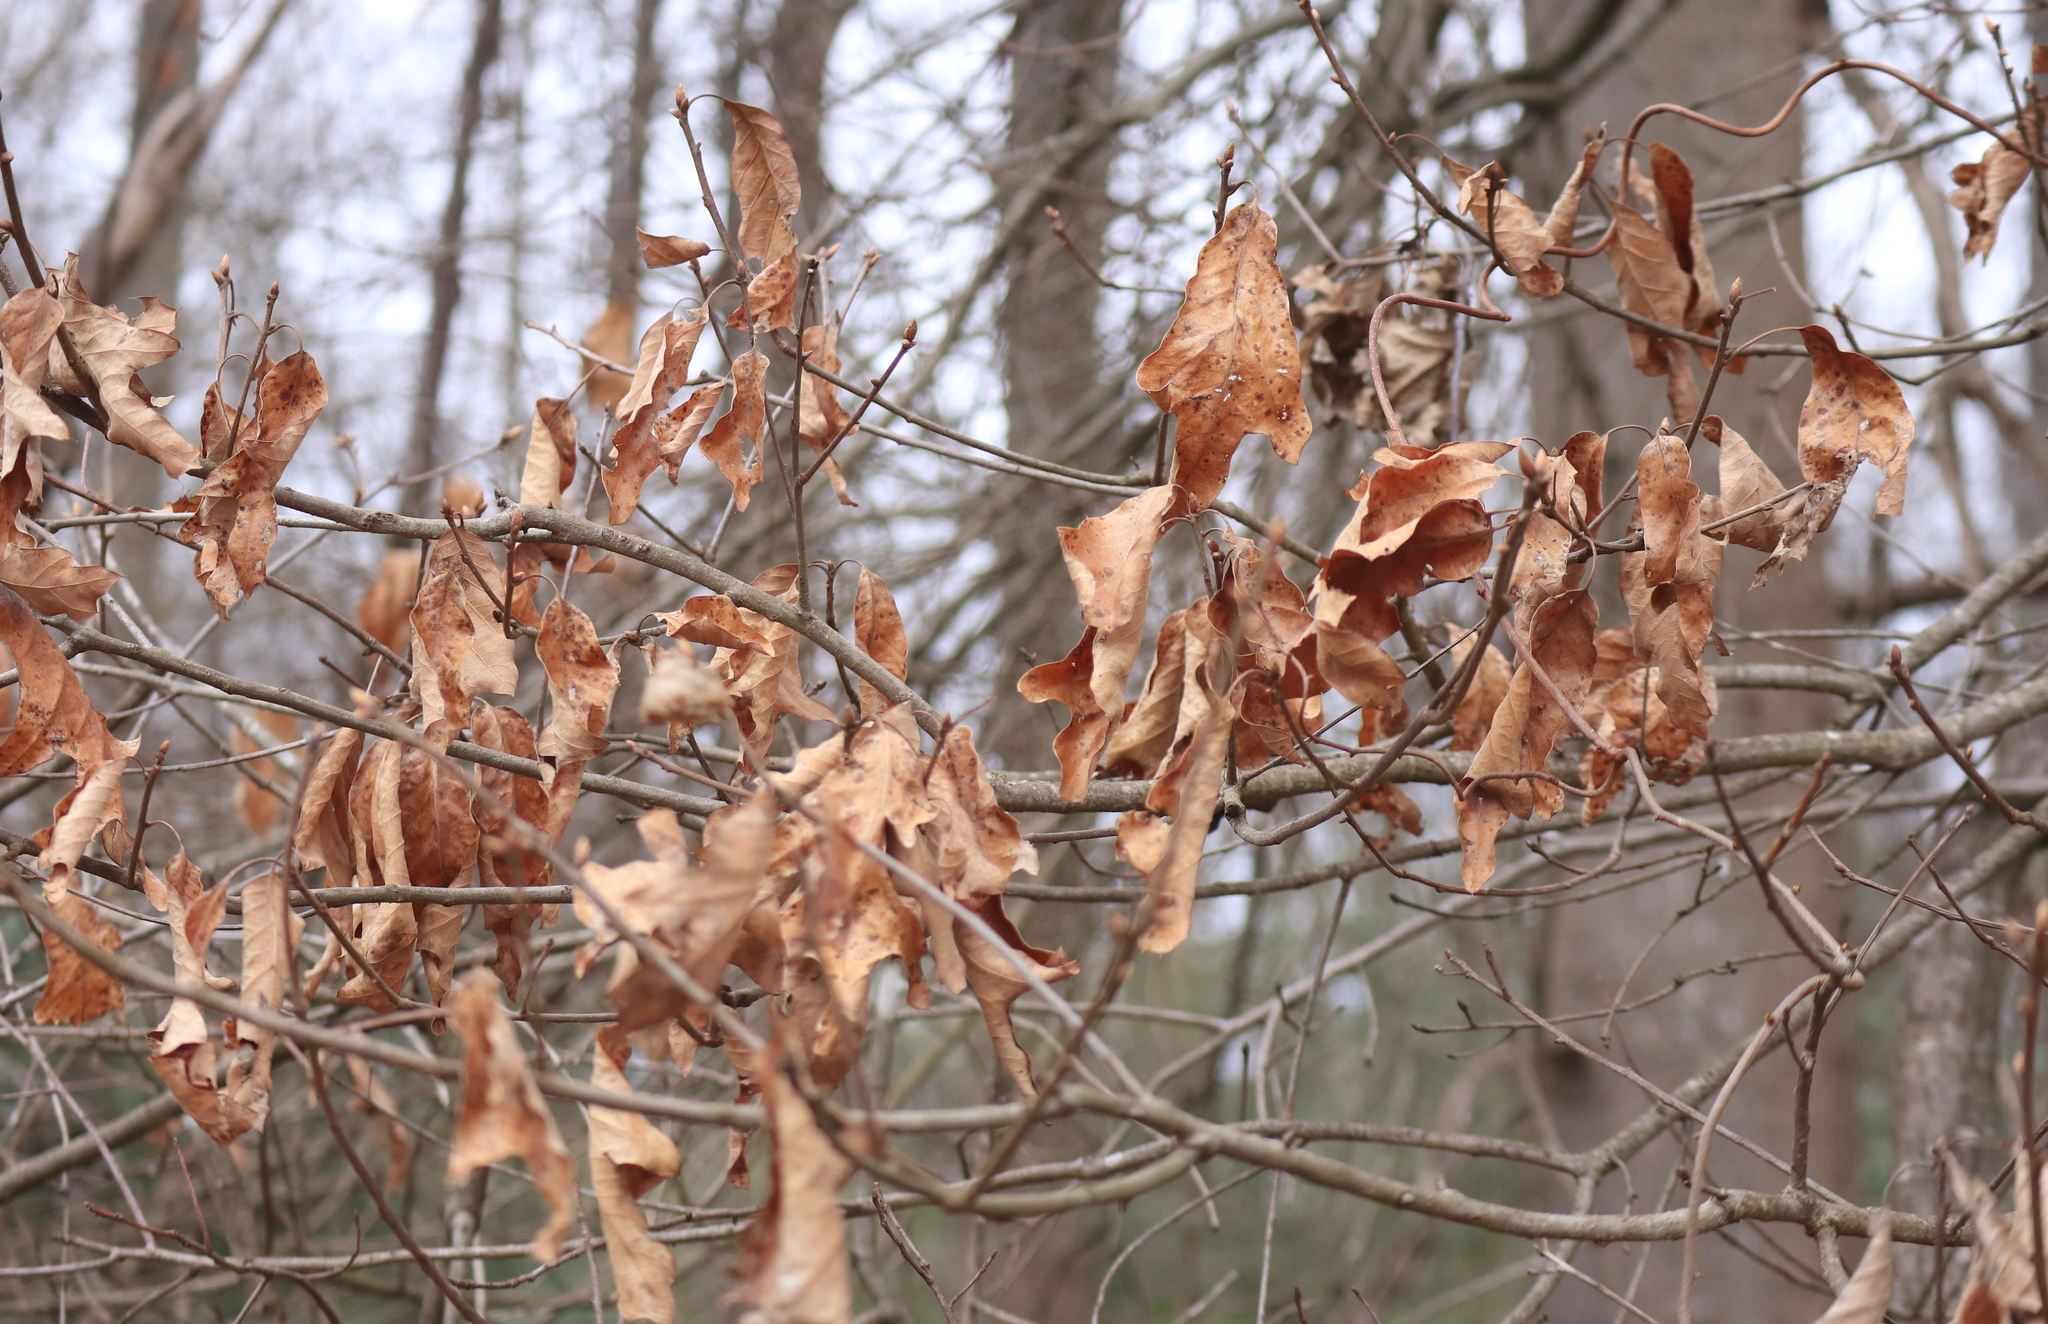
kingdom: Animalia
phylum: Arthropoda
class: Insecta
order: Hymenoptera
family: Cynipidae
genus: Zapatella
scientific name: Zapatella quercusphellos
